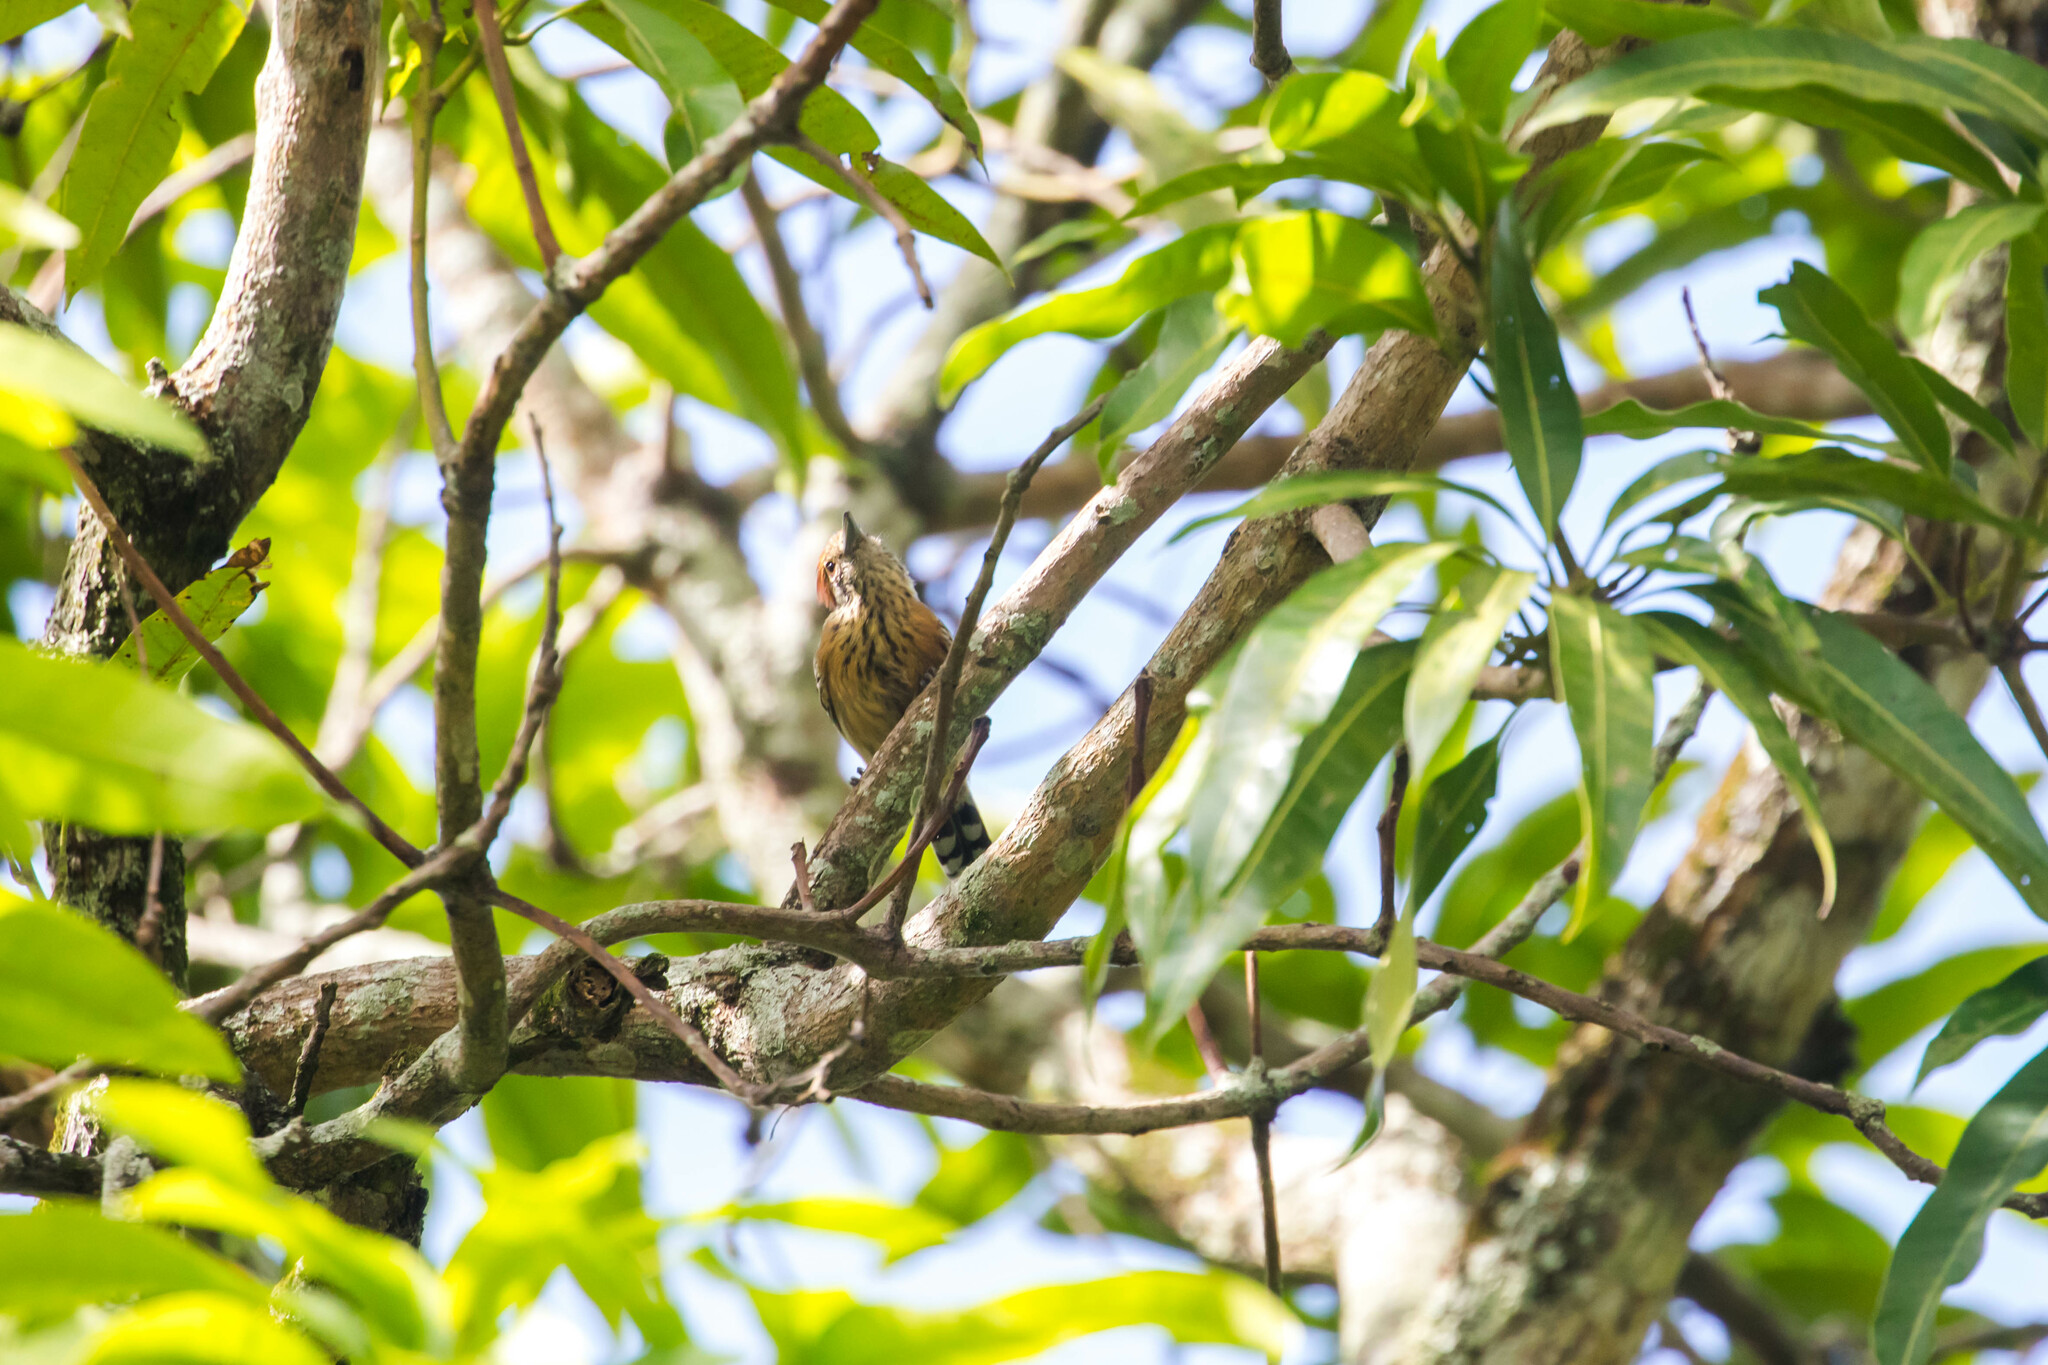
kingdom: Animalia
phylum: Chordata
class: Aves
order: Passeriformes
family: Thamnophilidae
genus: Sakesphorus
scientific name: Sakesphorus canadensis
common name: Black-crested antshrike
